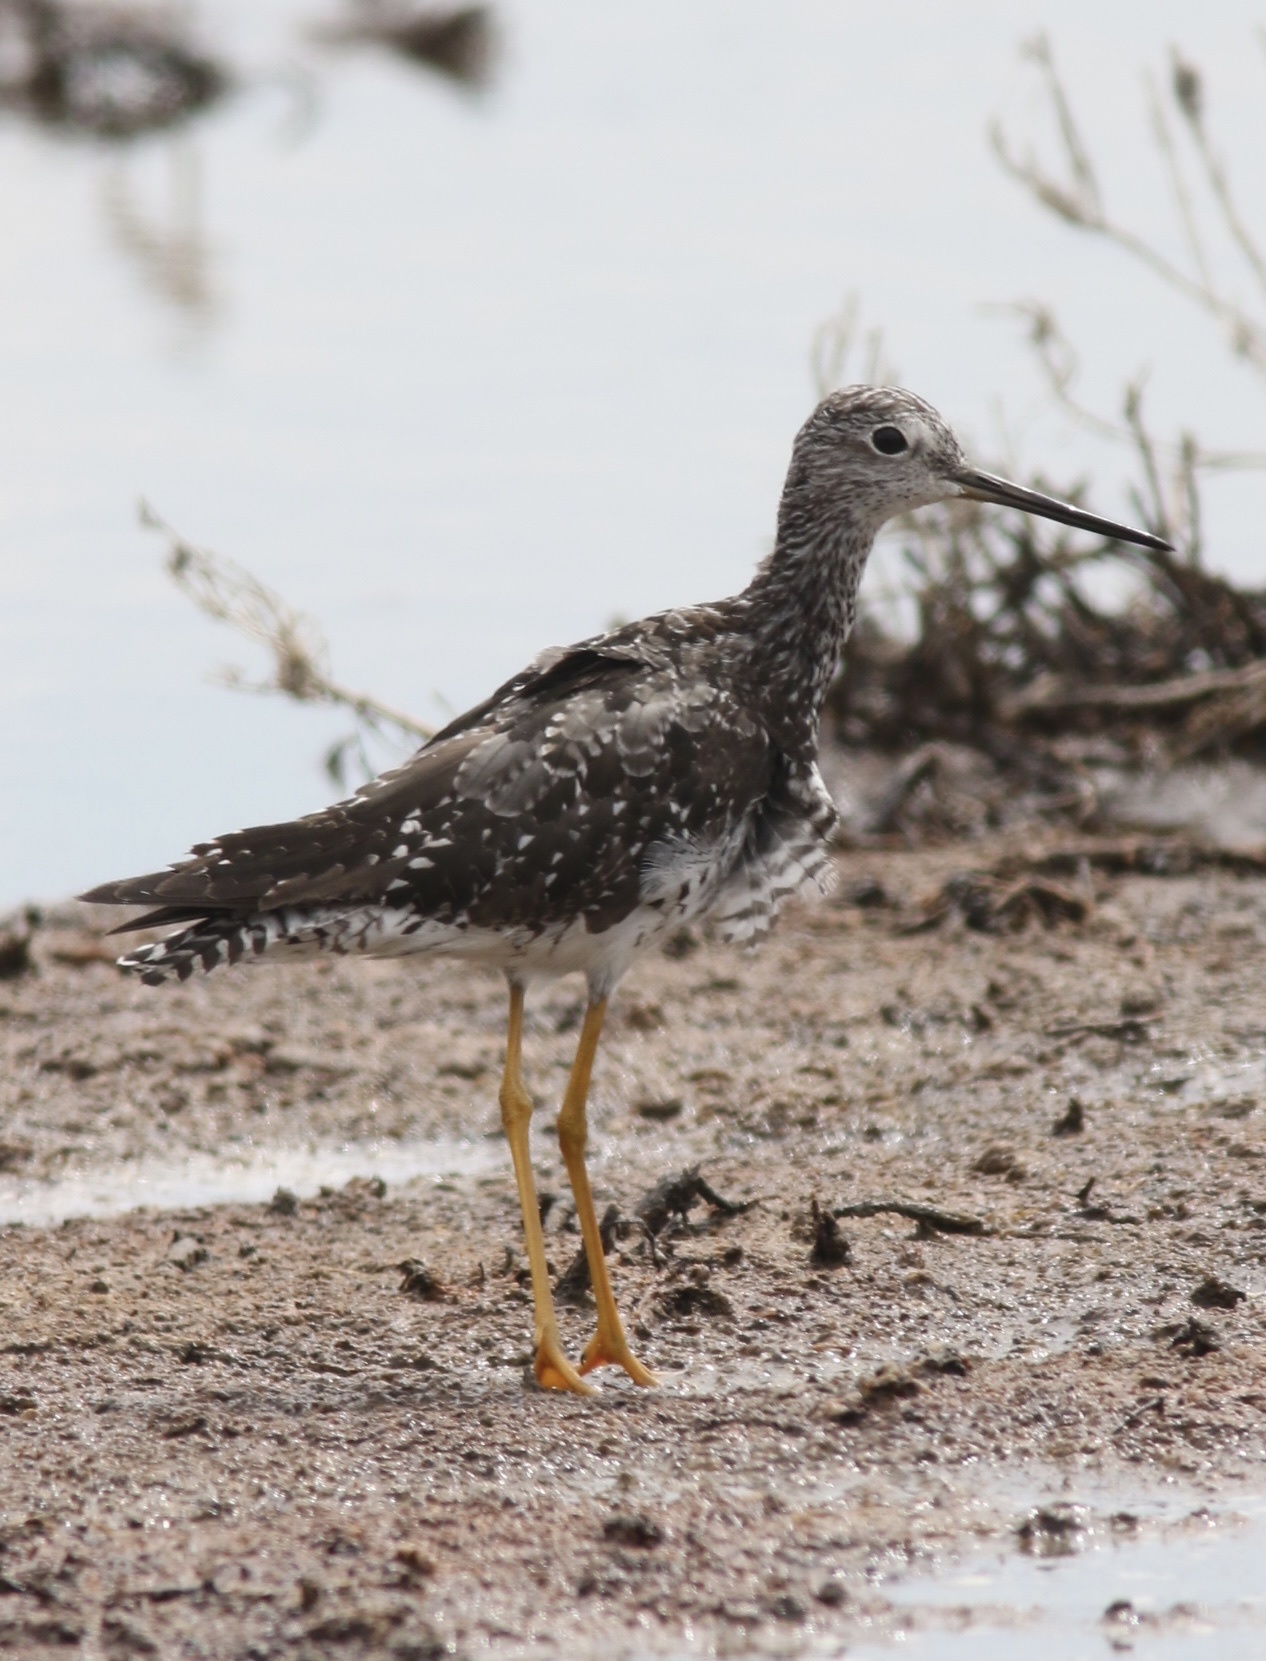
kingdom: Animalia
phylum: Chordata
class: Aves
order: Charadriiformes
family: Scolopacidae
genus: Tringa
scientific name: Tringa melanoleuca
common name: Greater yellowlegs
